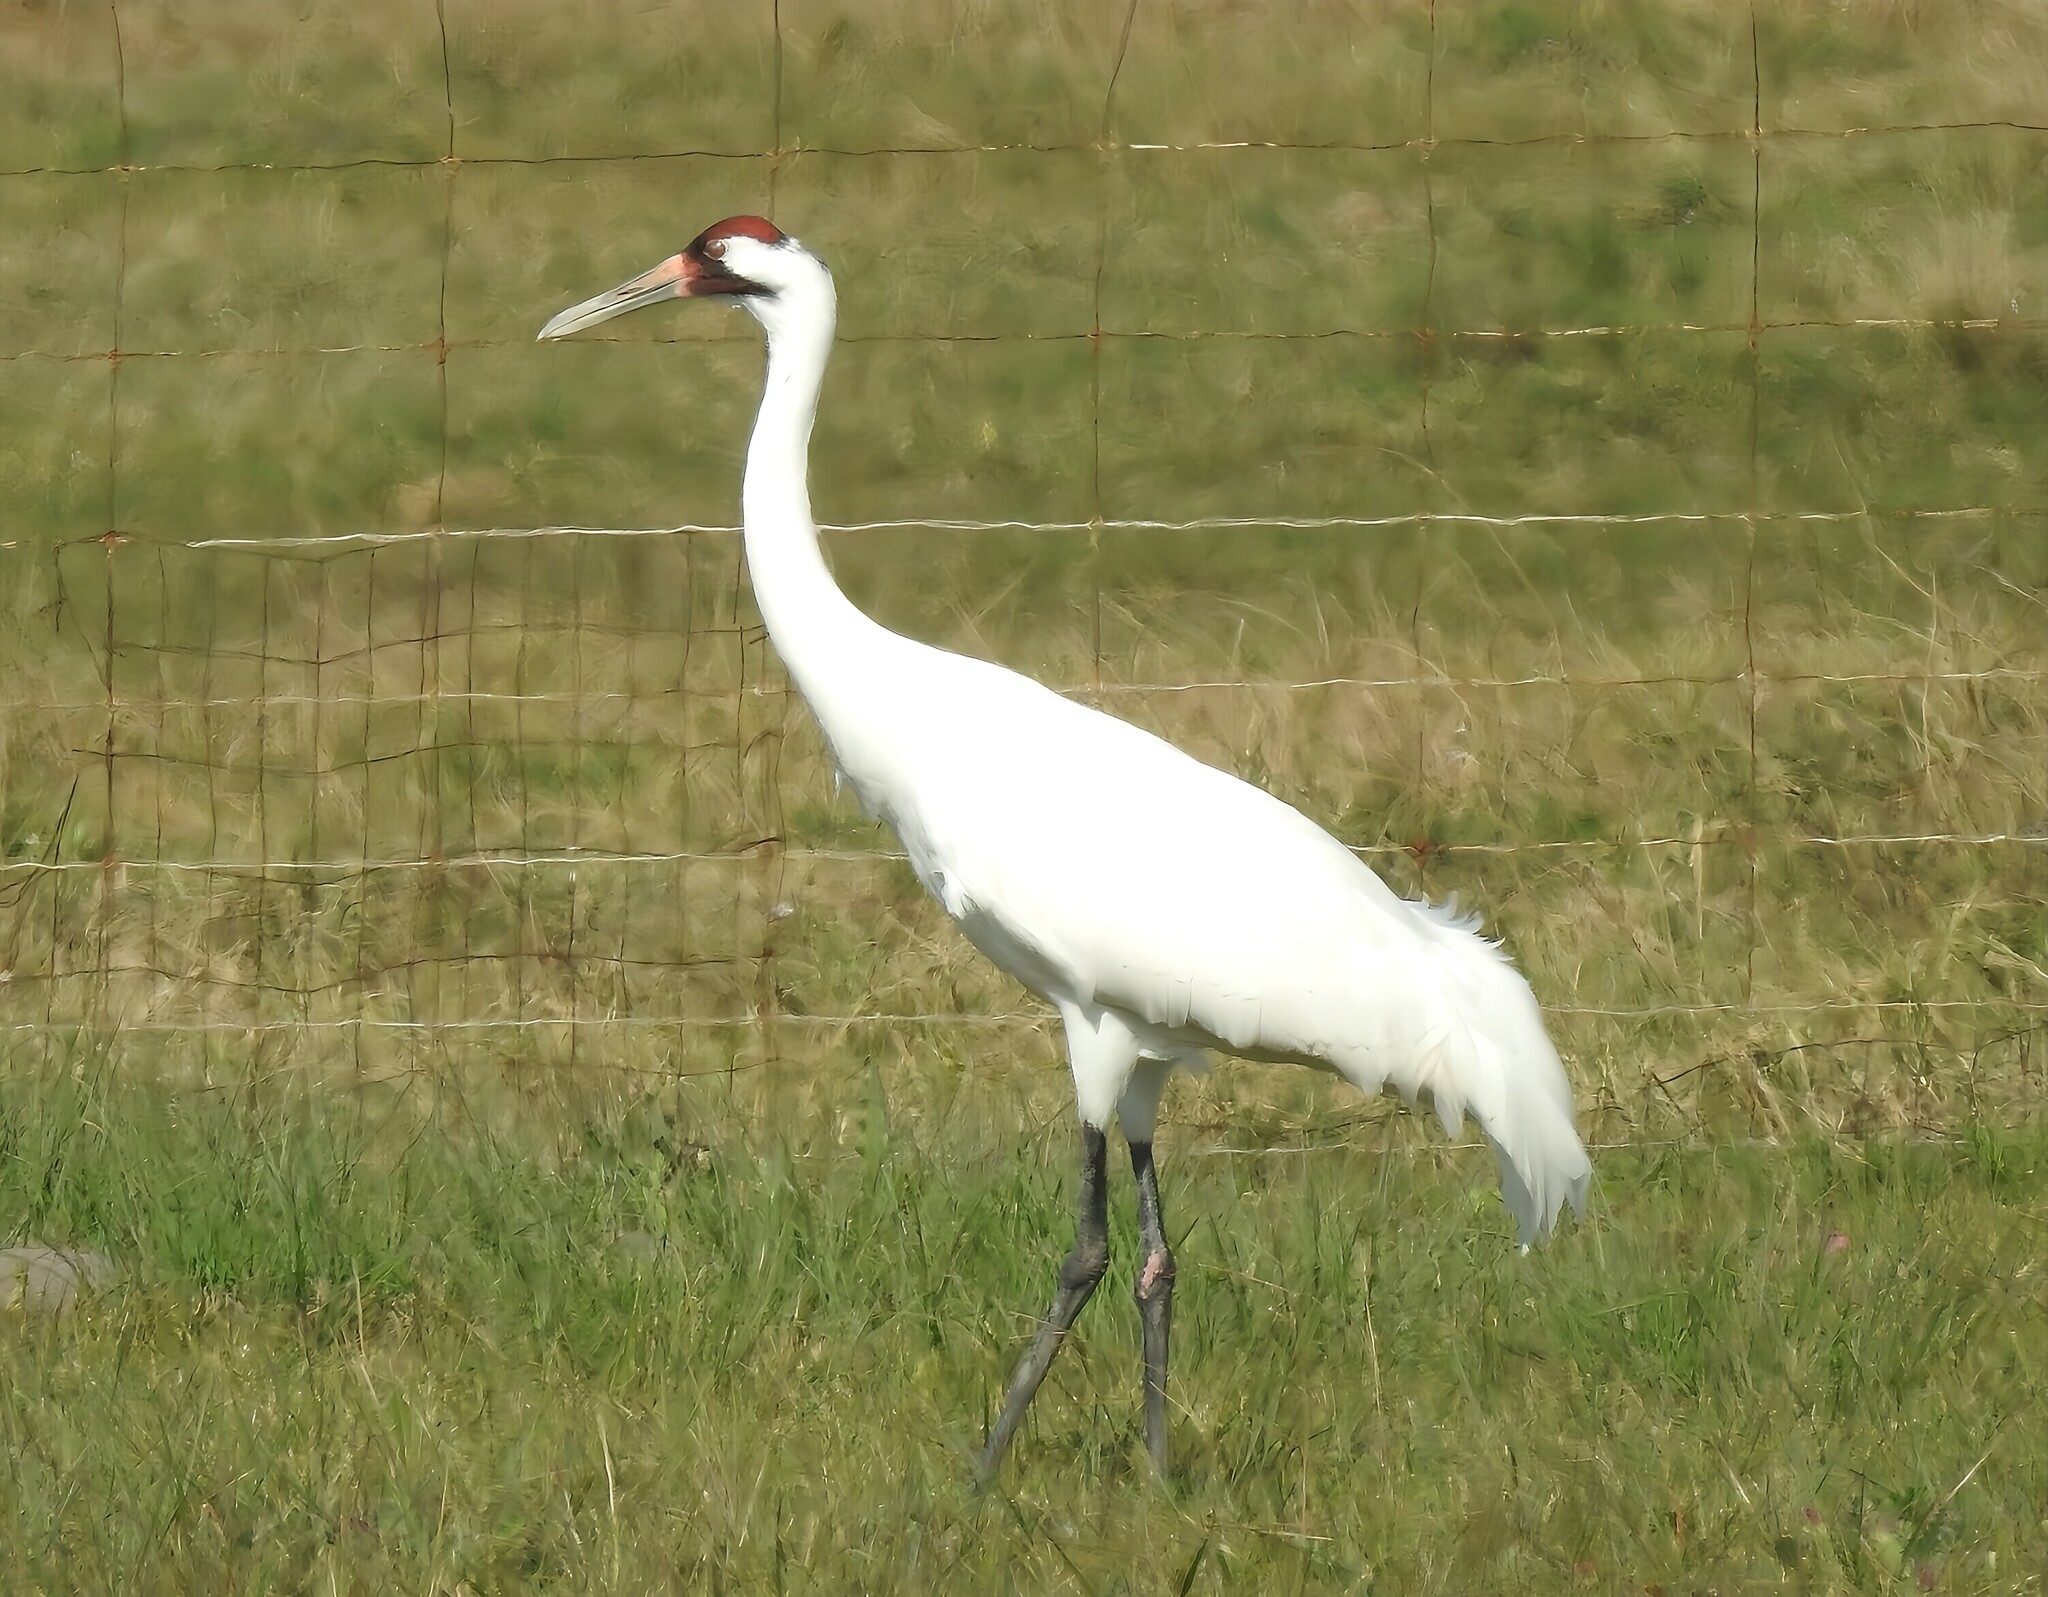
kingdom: Animalia
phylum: Chordata
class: Aves
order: Gruiformes
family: Gruidae
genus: Grus
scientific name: Grus americana
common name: Whooping crane
